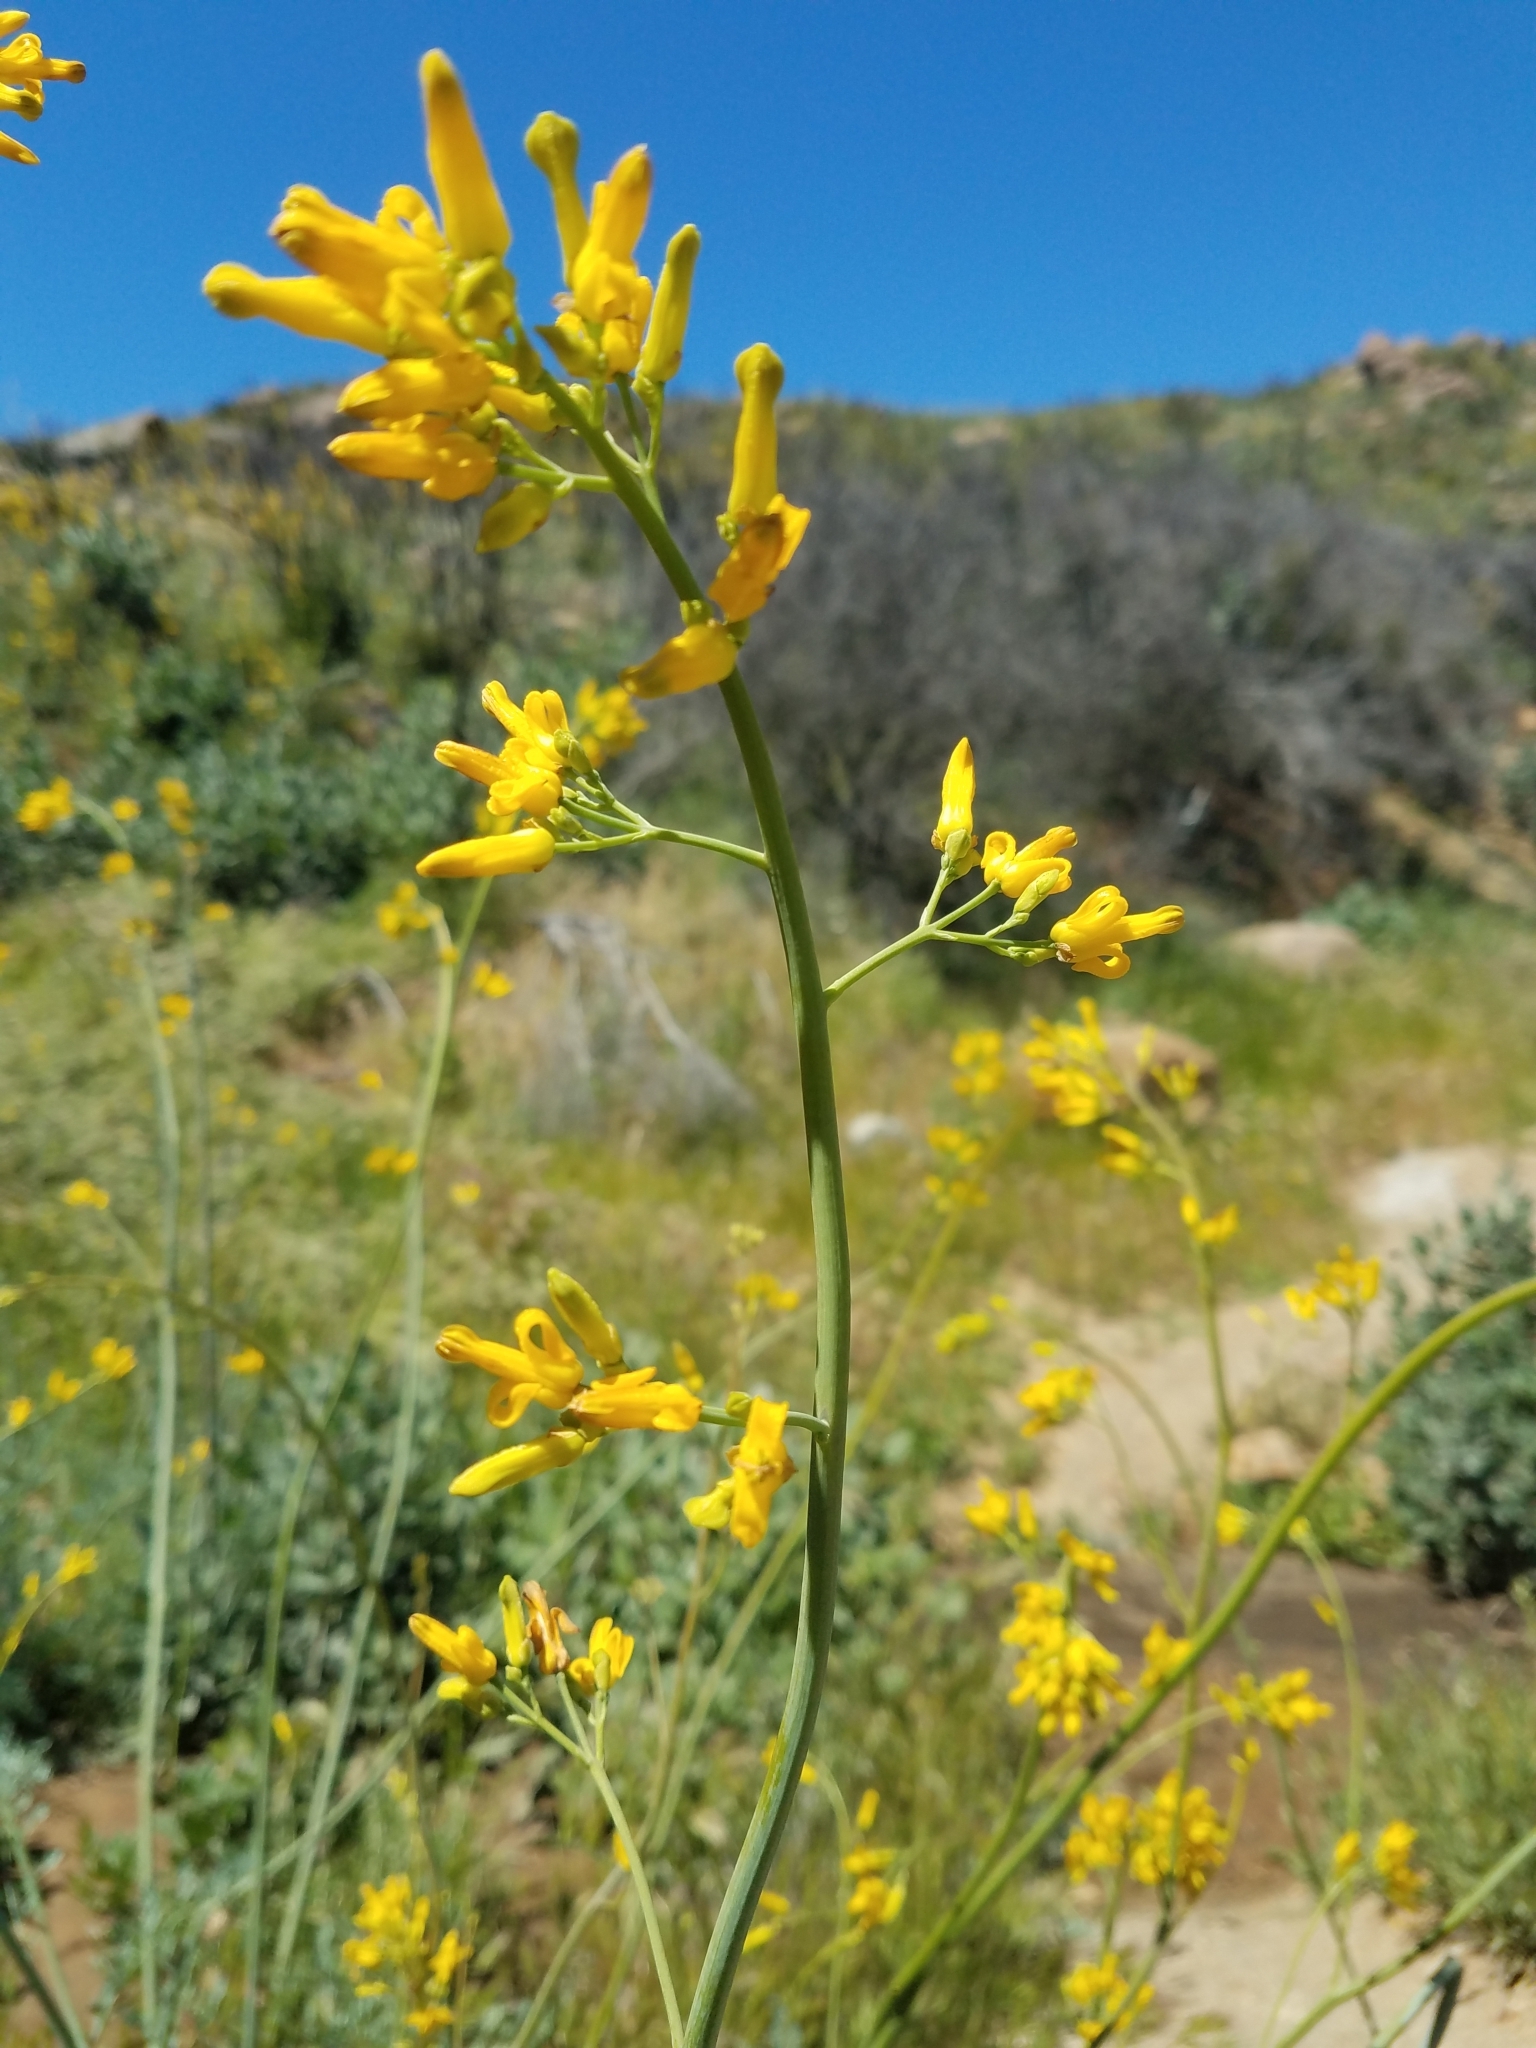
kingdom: Plantae
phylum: Tracheophyta
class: Magnoliopsida
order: Ranunculales
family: Papaveraceae
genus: Ehrendorferia
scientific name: Ehrendorferia chrysantha
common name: Golden eardrops
